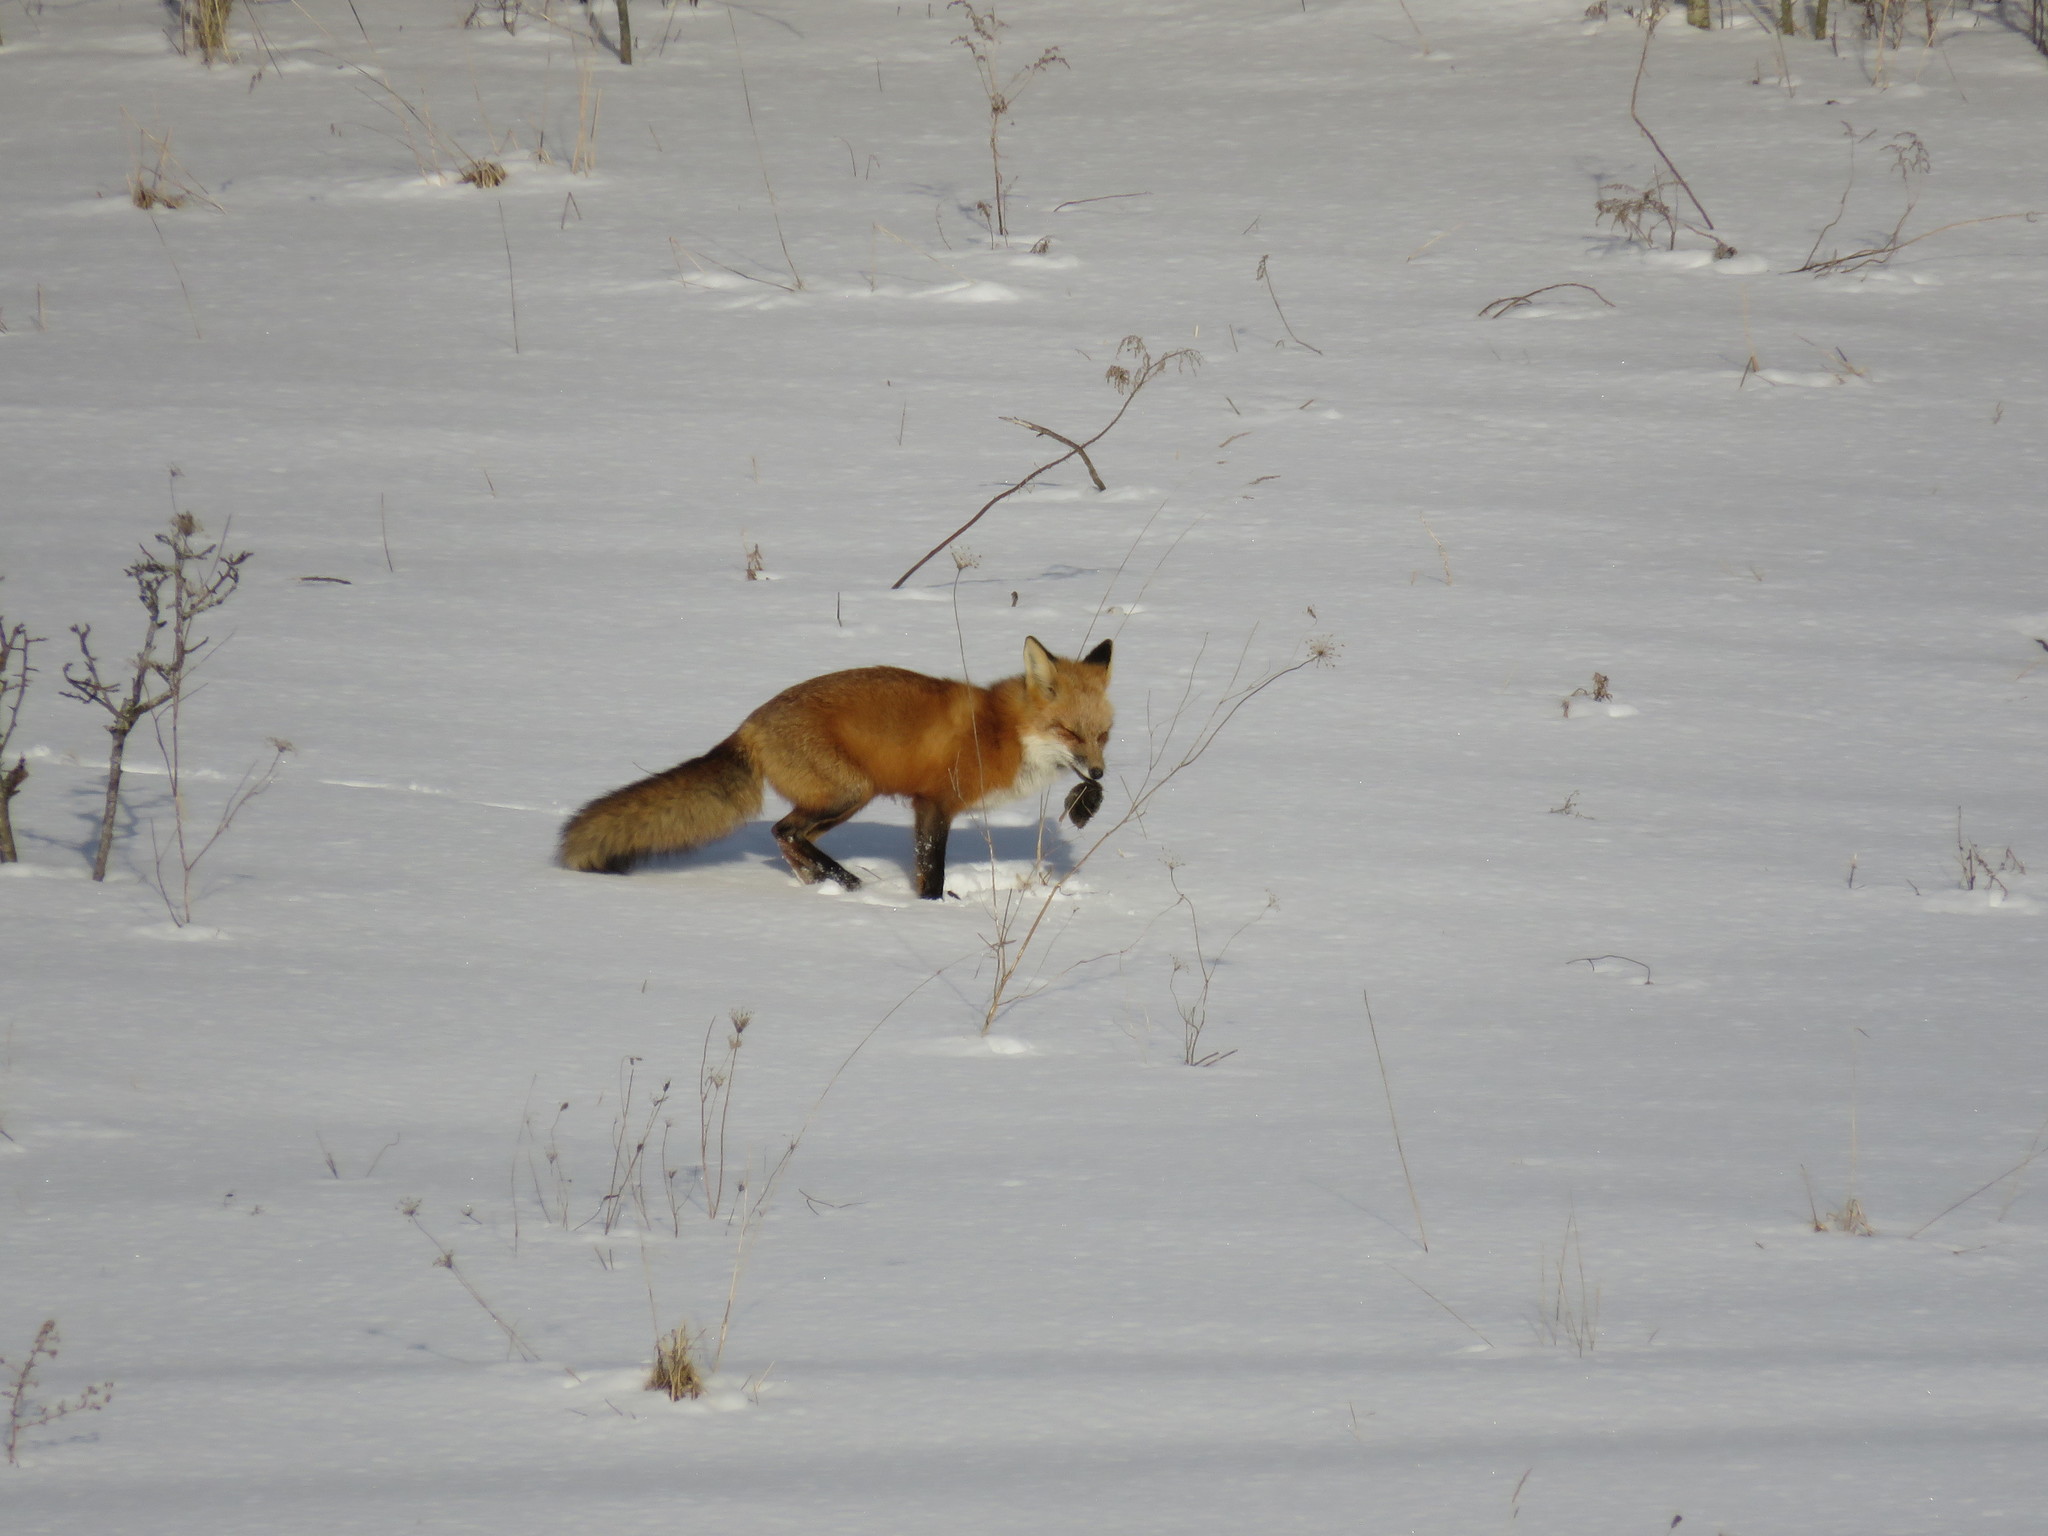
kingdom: Animalia
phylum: Chordata
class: Mammalia
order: Carnivora
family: Canidae
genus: Vulpes
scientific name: Vulpes vulpes
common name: Red fox
